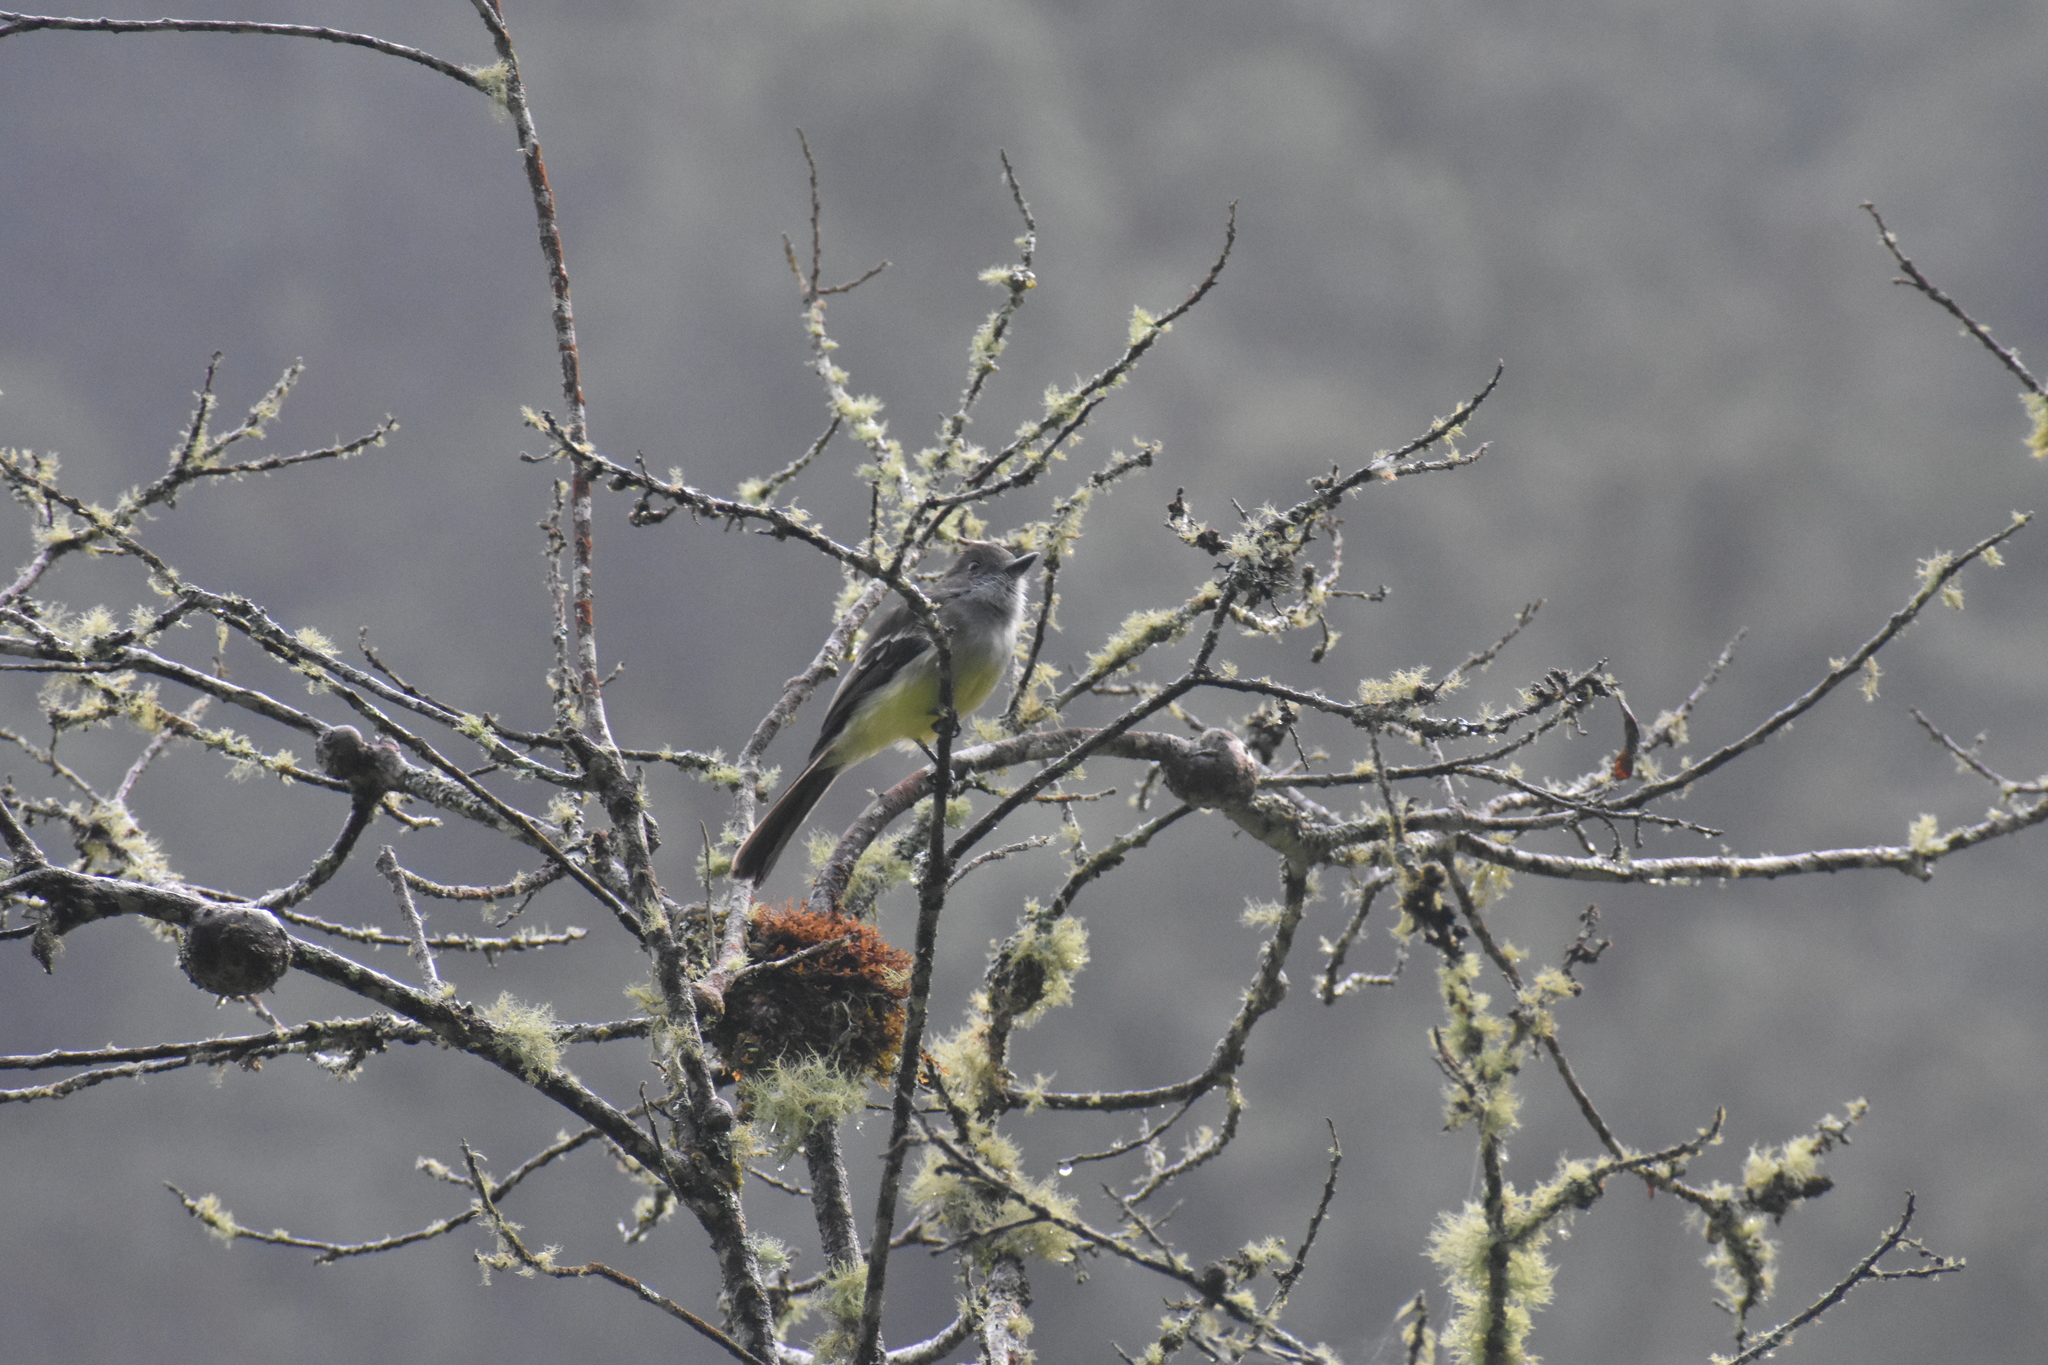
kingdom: Animalia
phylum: Chordata
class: Aves
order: Passeriformes
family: Tyrannidae
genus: Myiarchus
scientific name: Myiarchus cephalotes
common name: Pale-edged flycatcher
